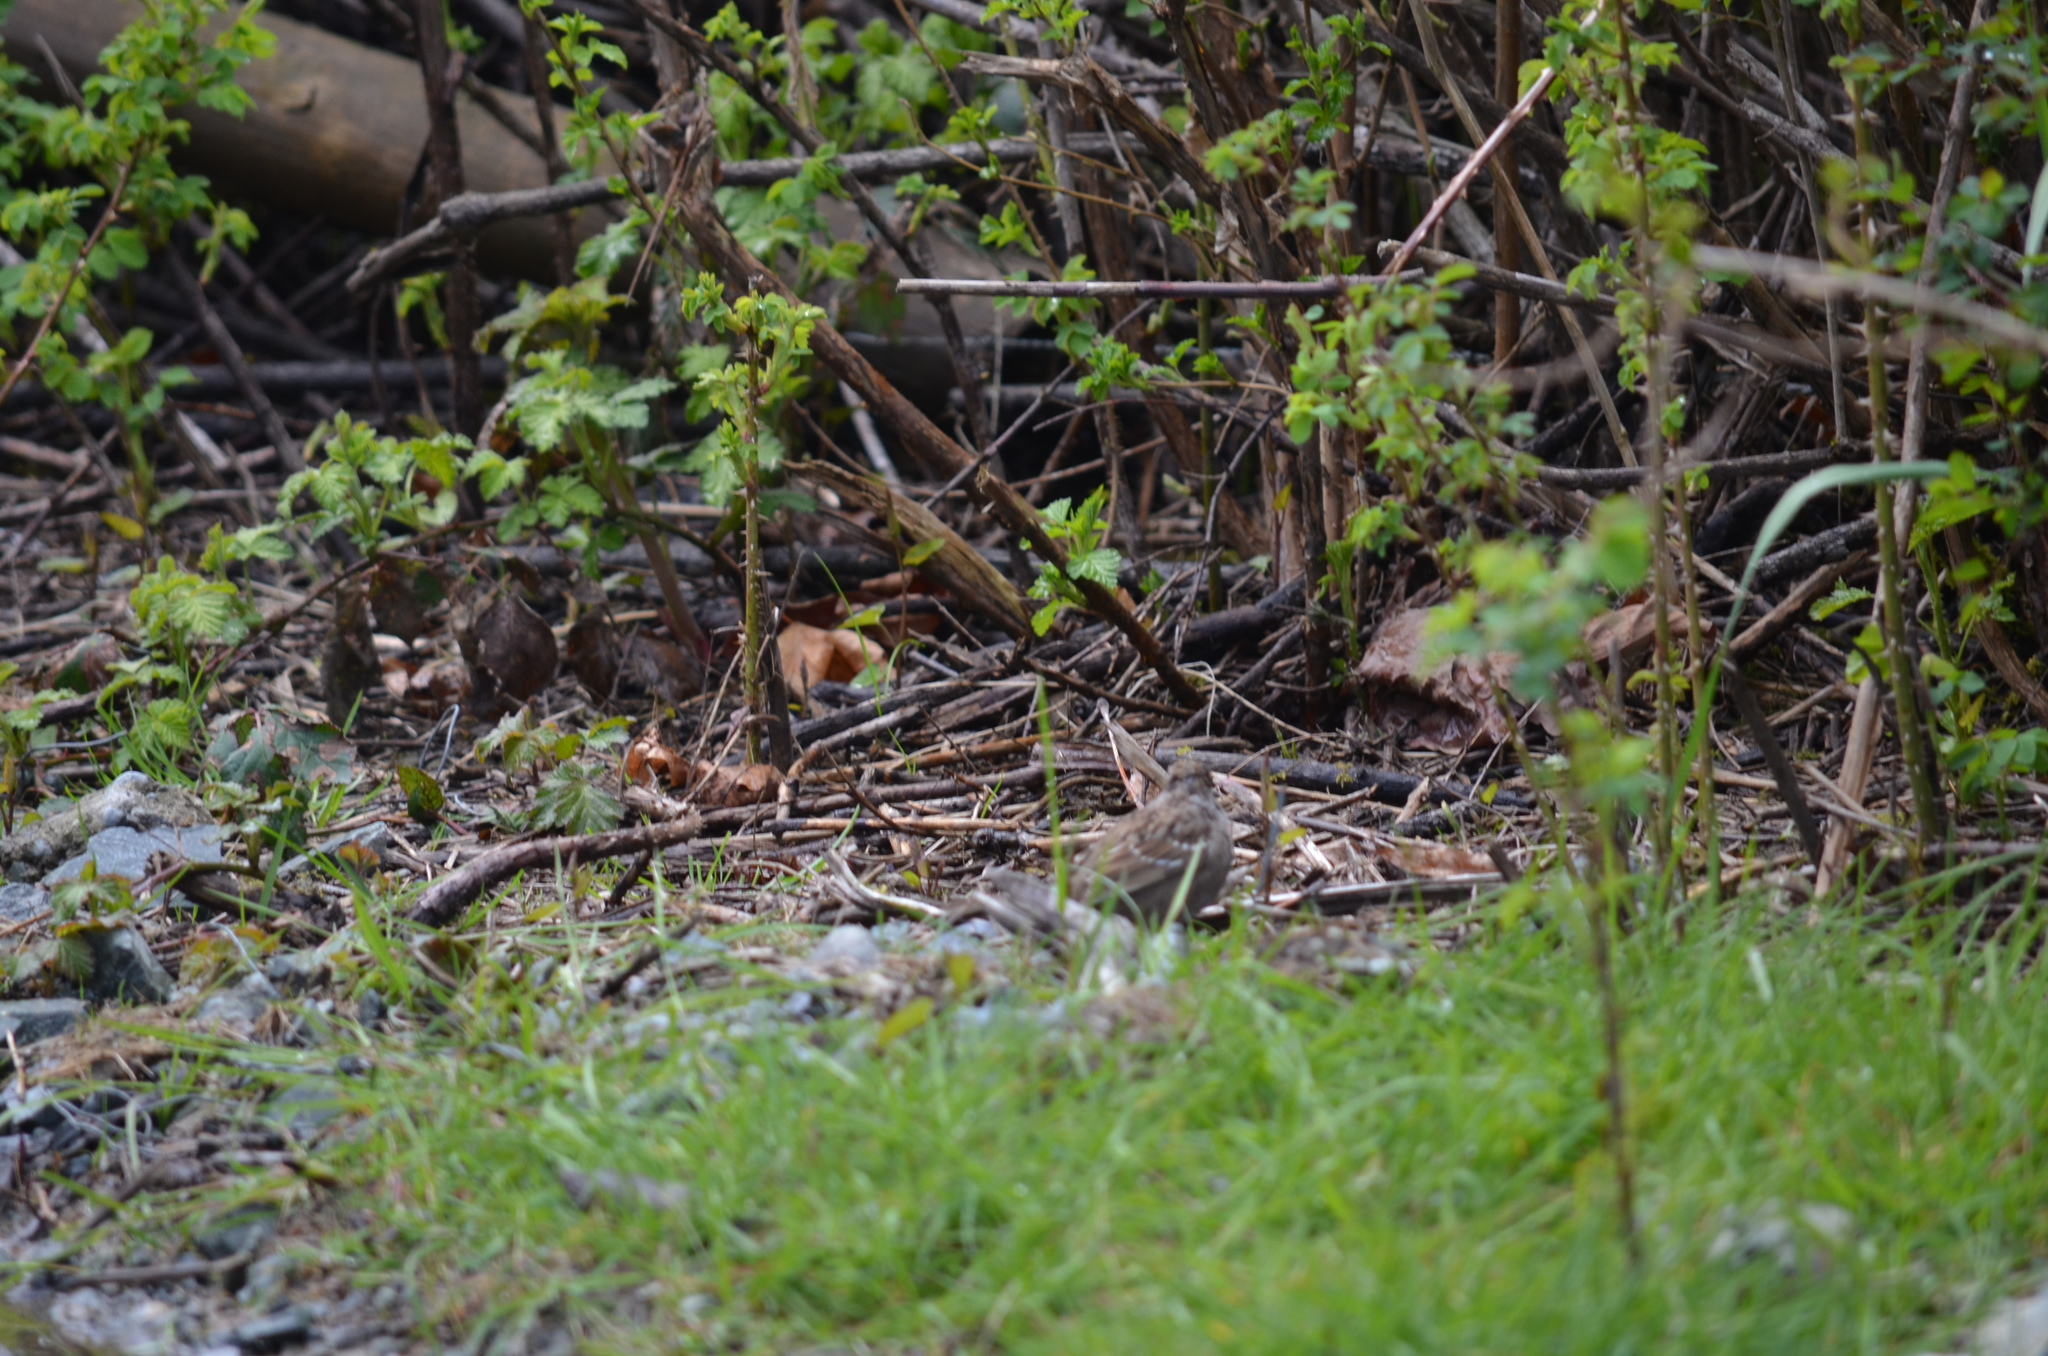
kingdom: Animalia
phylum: Chordata
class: Aves
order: Passeriformes
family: Passerellidae
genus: Zonotrichia
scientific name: Zonotrichia atricapilla
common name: Golden-crowned sparrow
